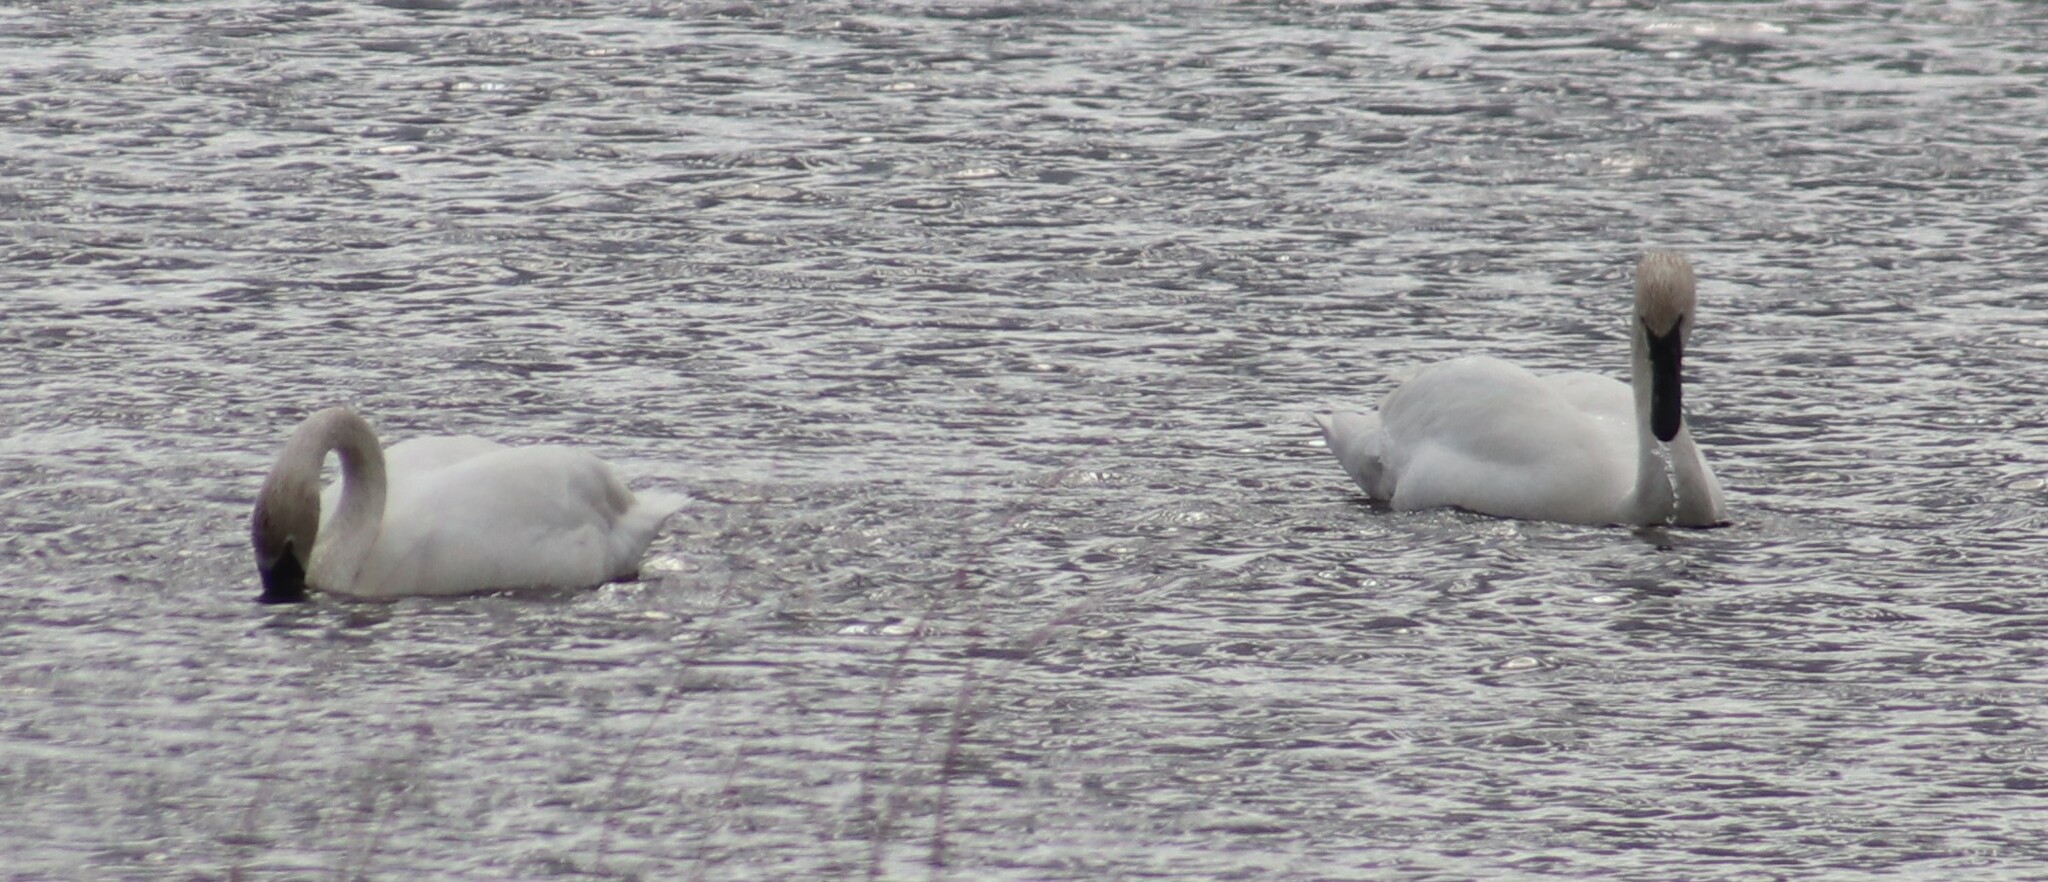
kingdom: Animalia
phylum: Chordata
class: Aves
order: Anseriformes
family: Anatidae
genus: Cygnus
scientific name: Cygnus buccinator
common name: Trumpeter swan
